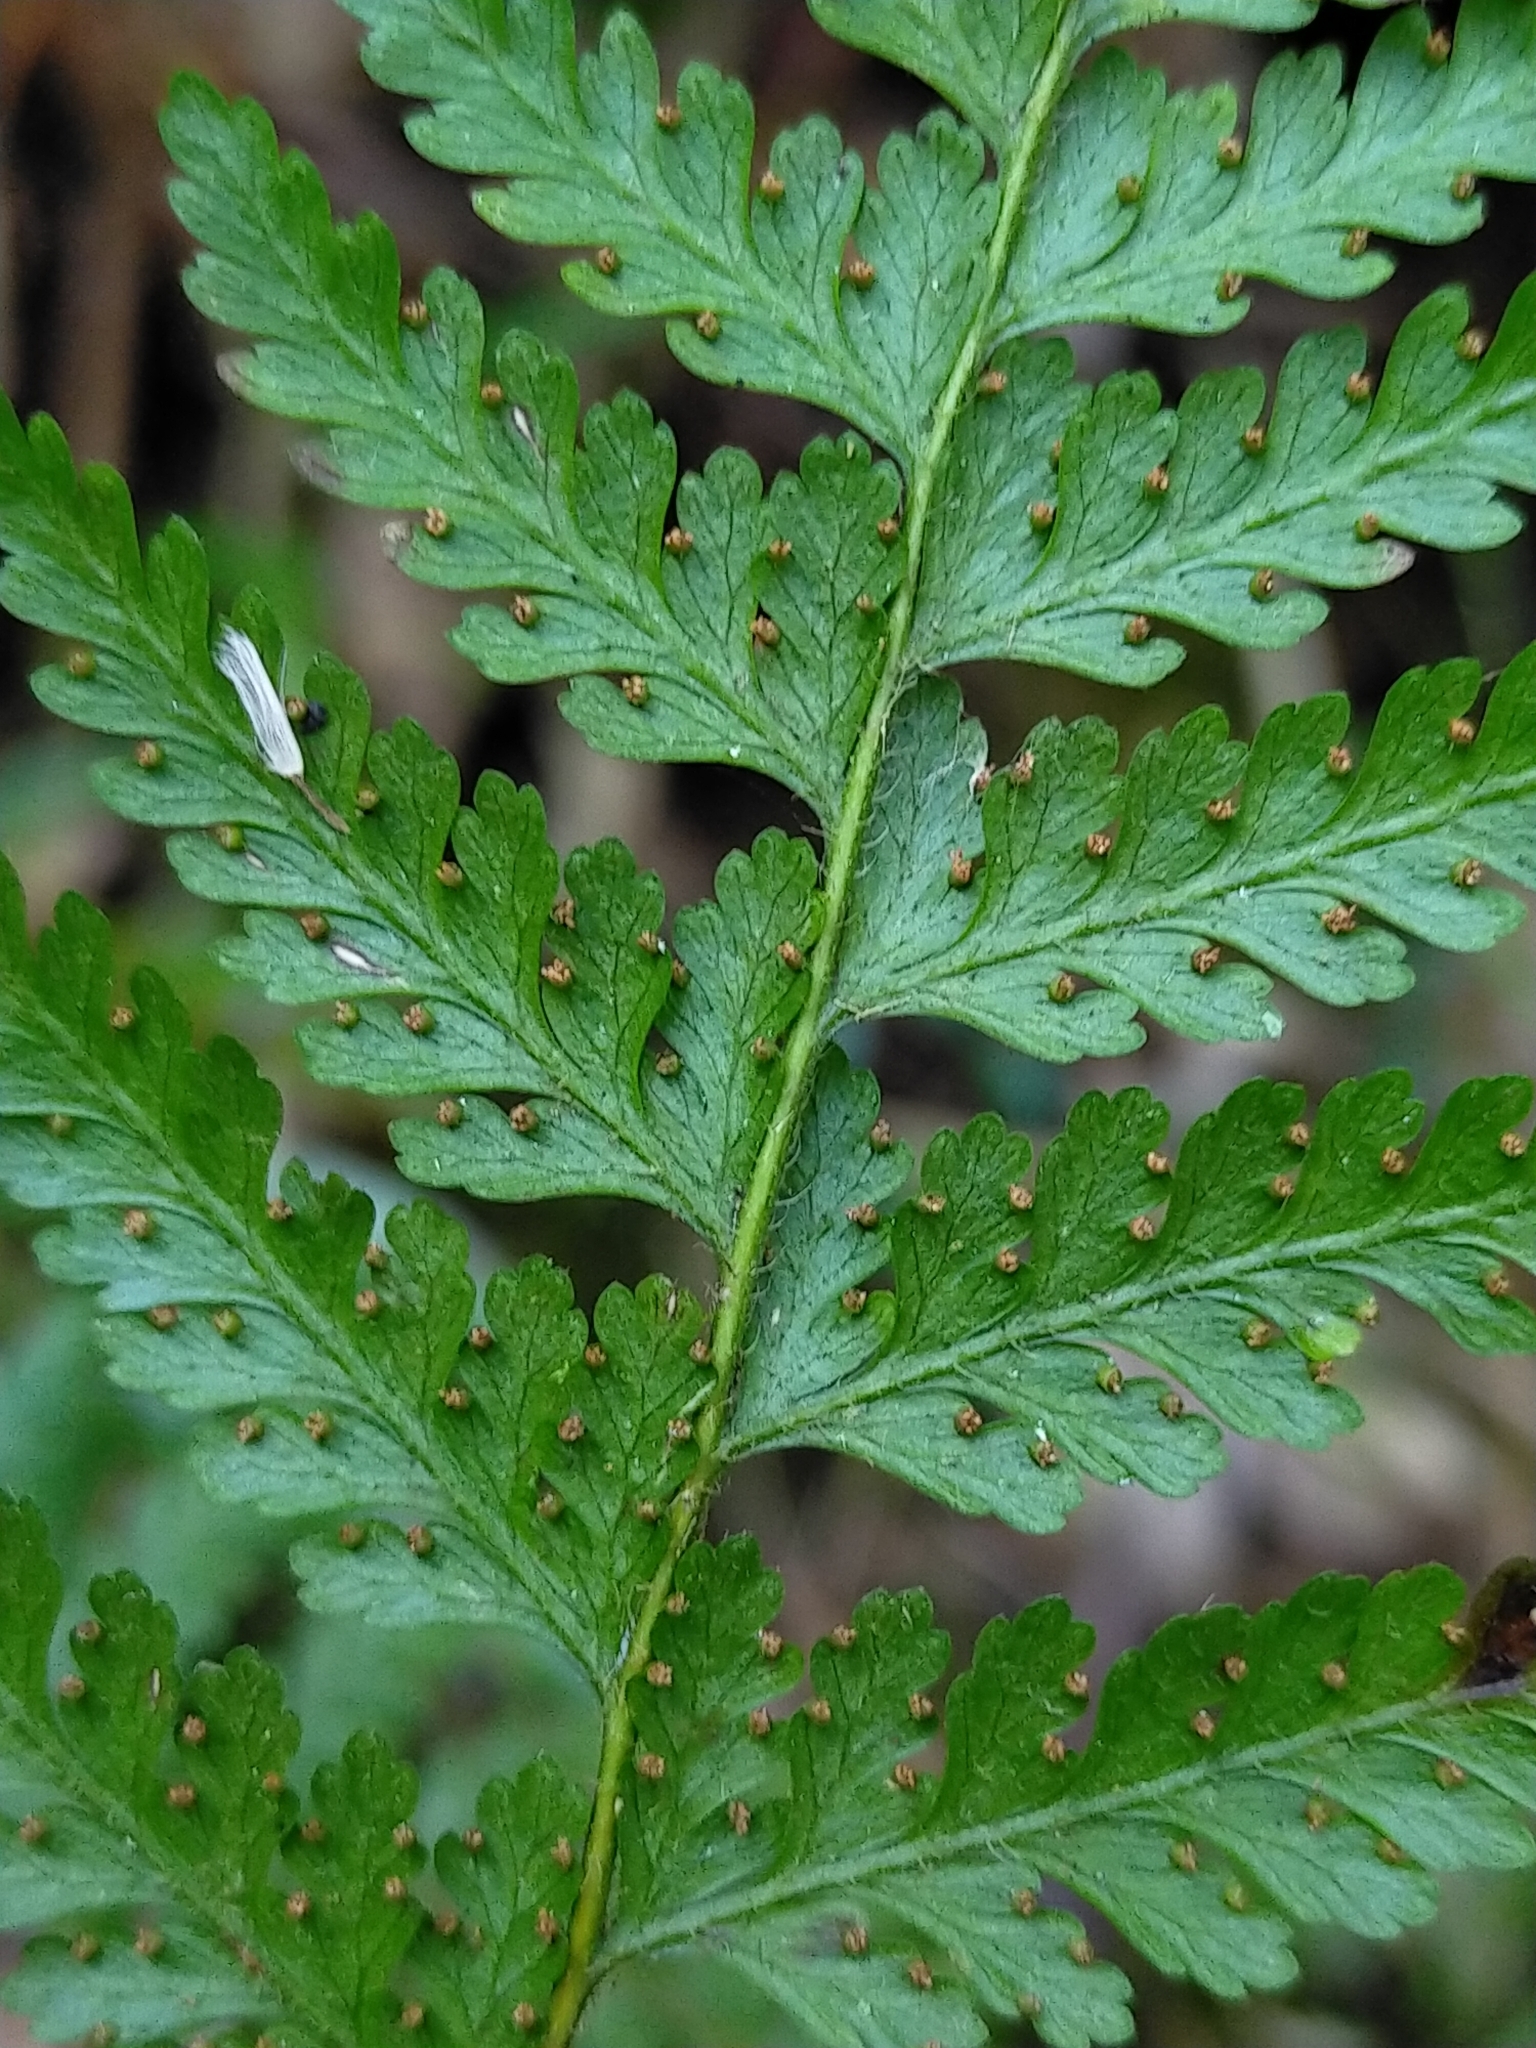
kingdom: Plantae
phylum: Tracheophyta
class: Polypodiopsida
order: Polypodiales
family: Dennstaedtiaceae
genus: Sitobolium
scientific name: Sitobolium zeylanicum
